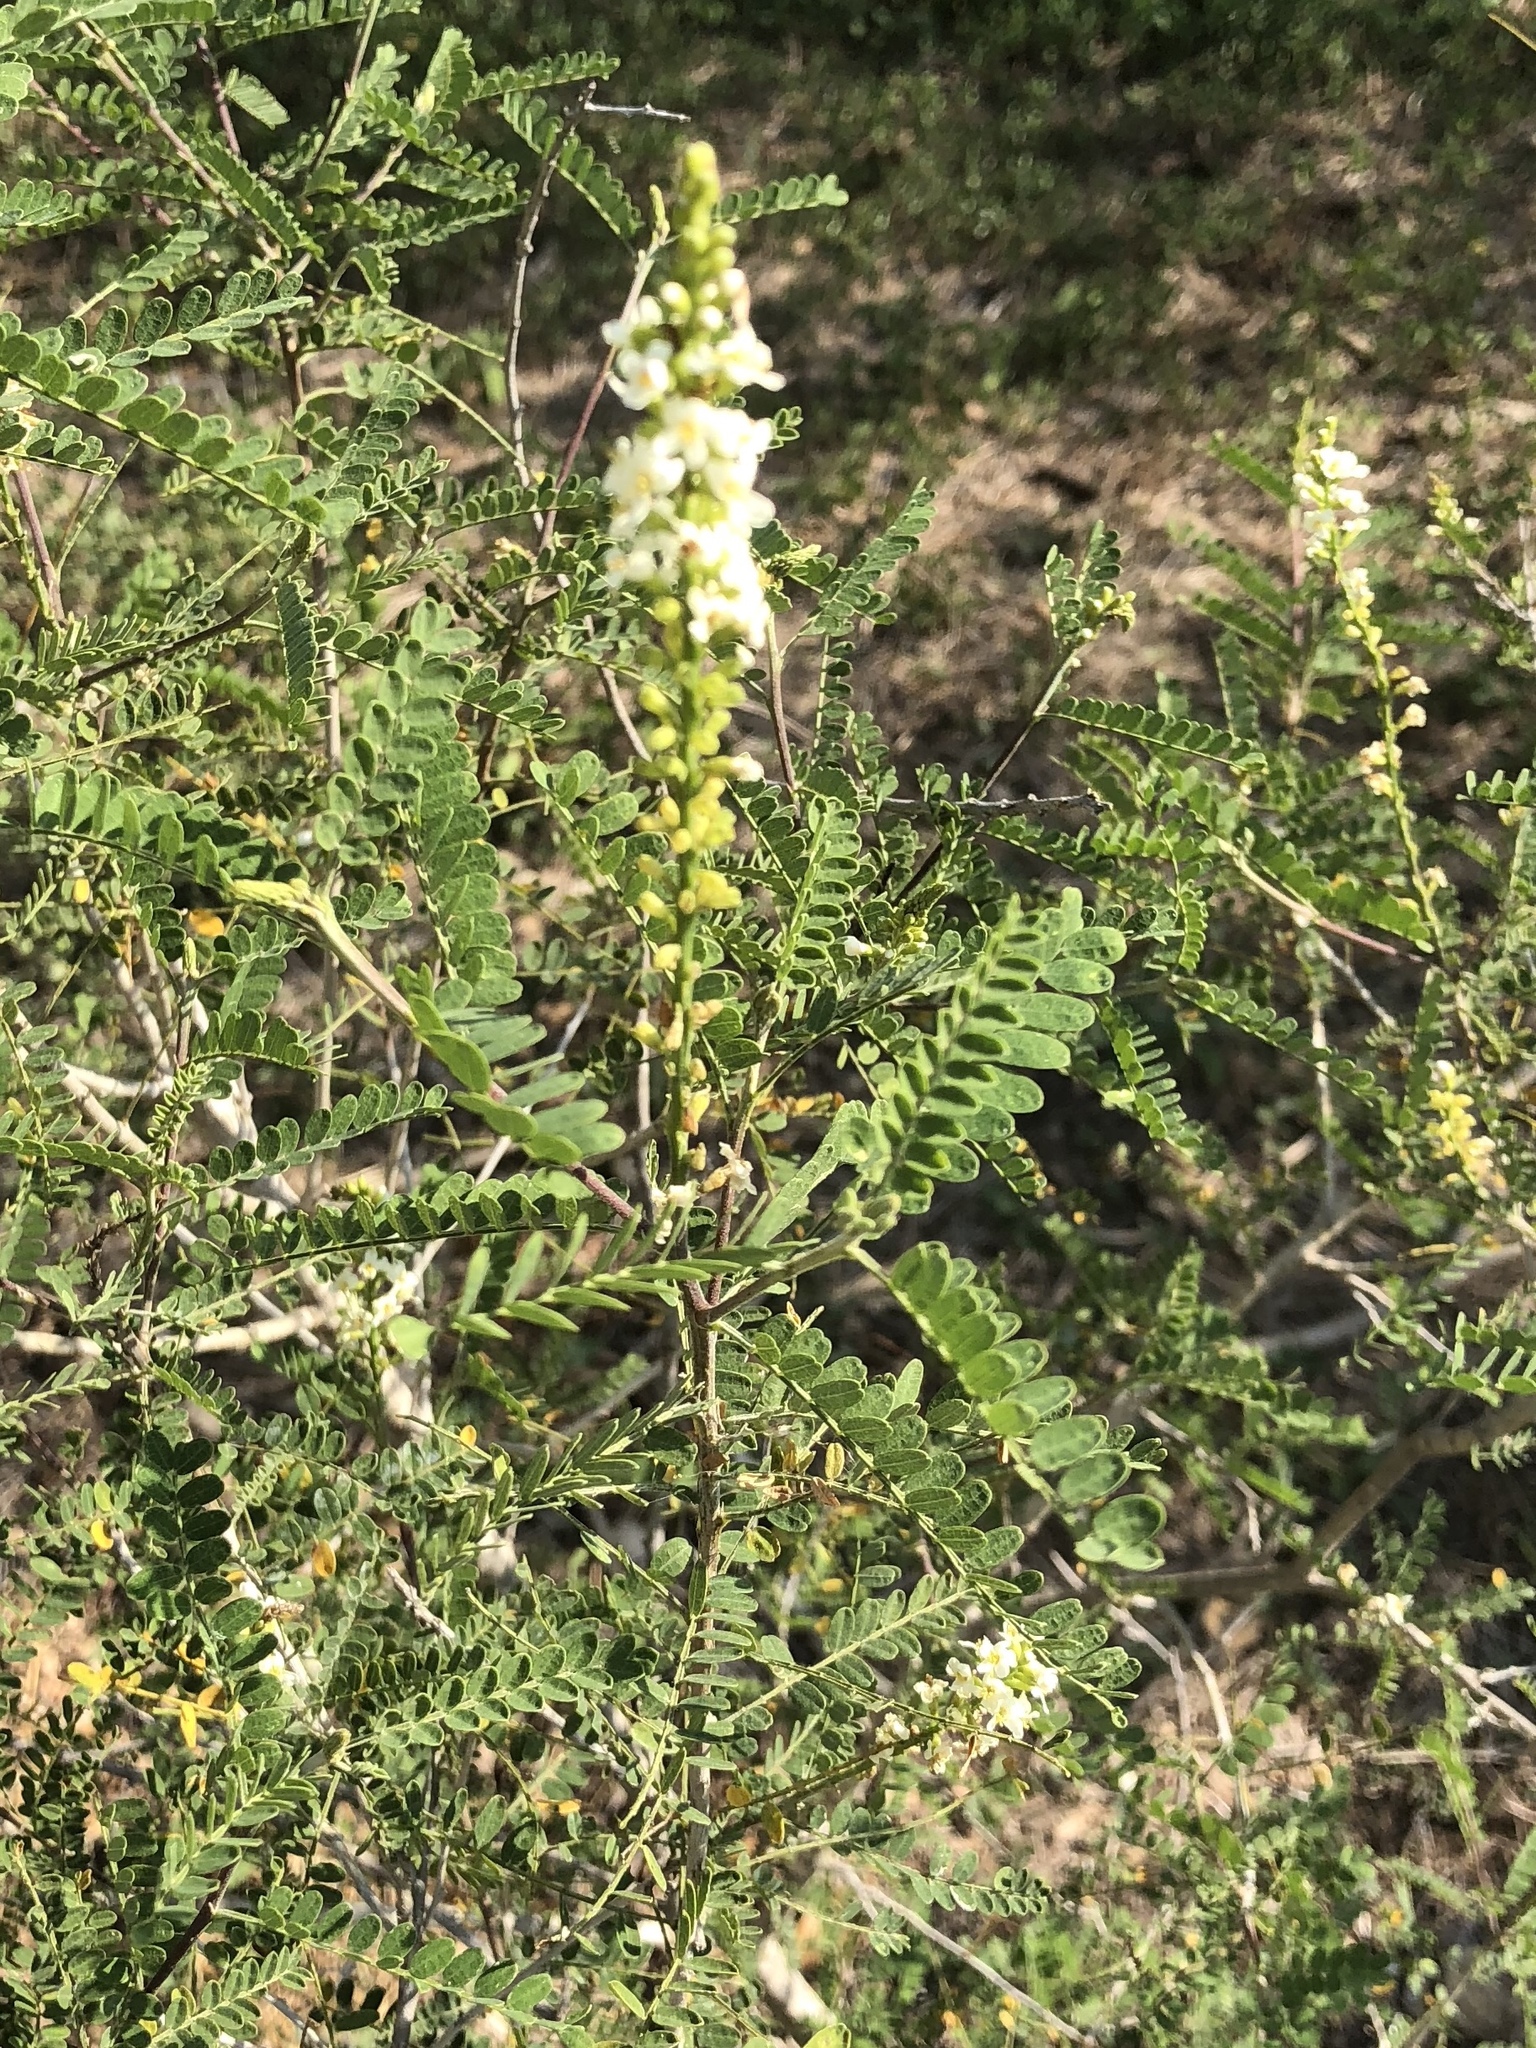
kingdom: Plantae
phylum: Tracheophyta
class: Magnoliopsida
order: Fabales
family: Fabaceae
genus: Eysenhardtia
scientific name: Eysenhardtia texana
